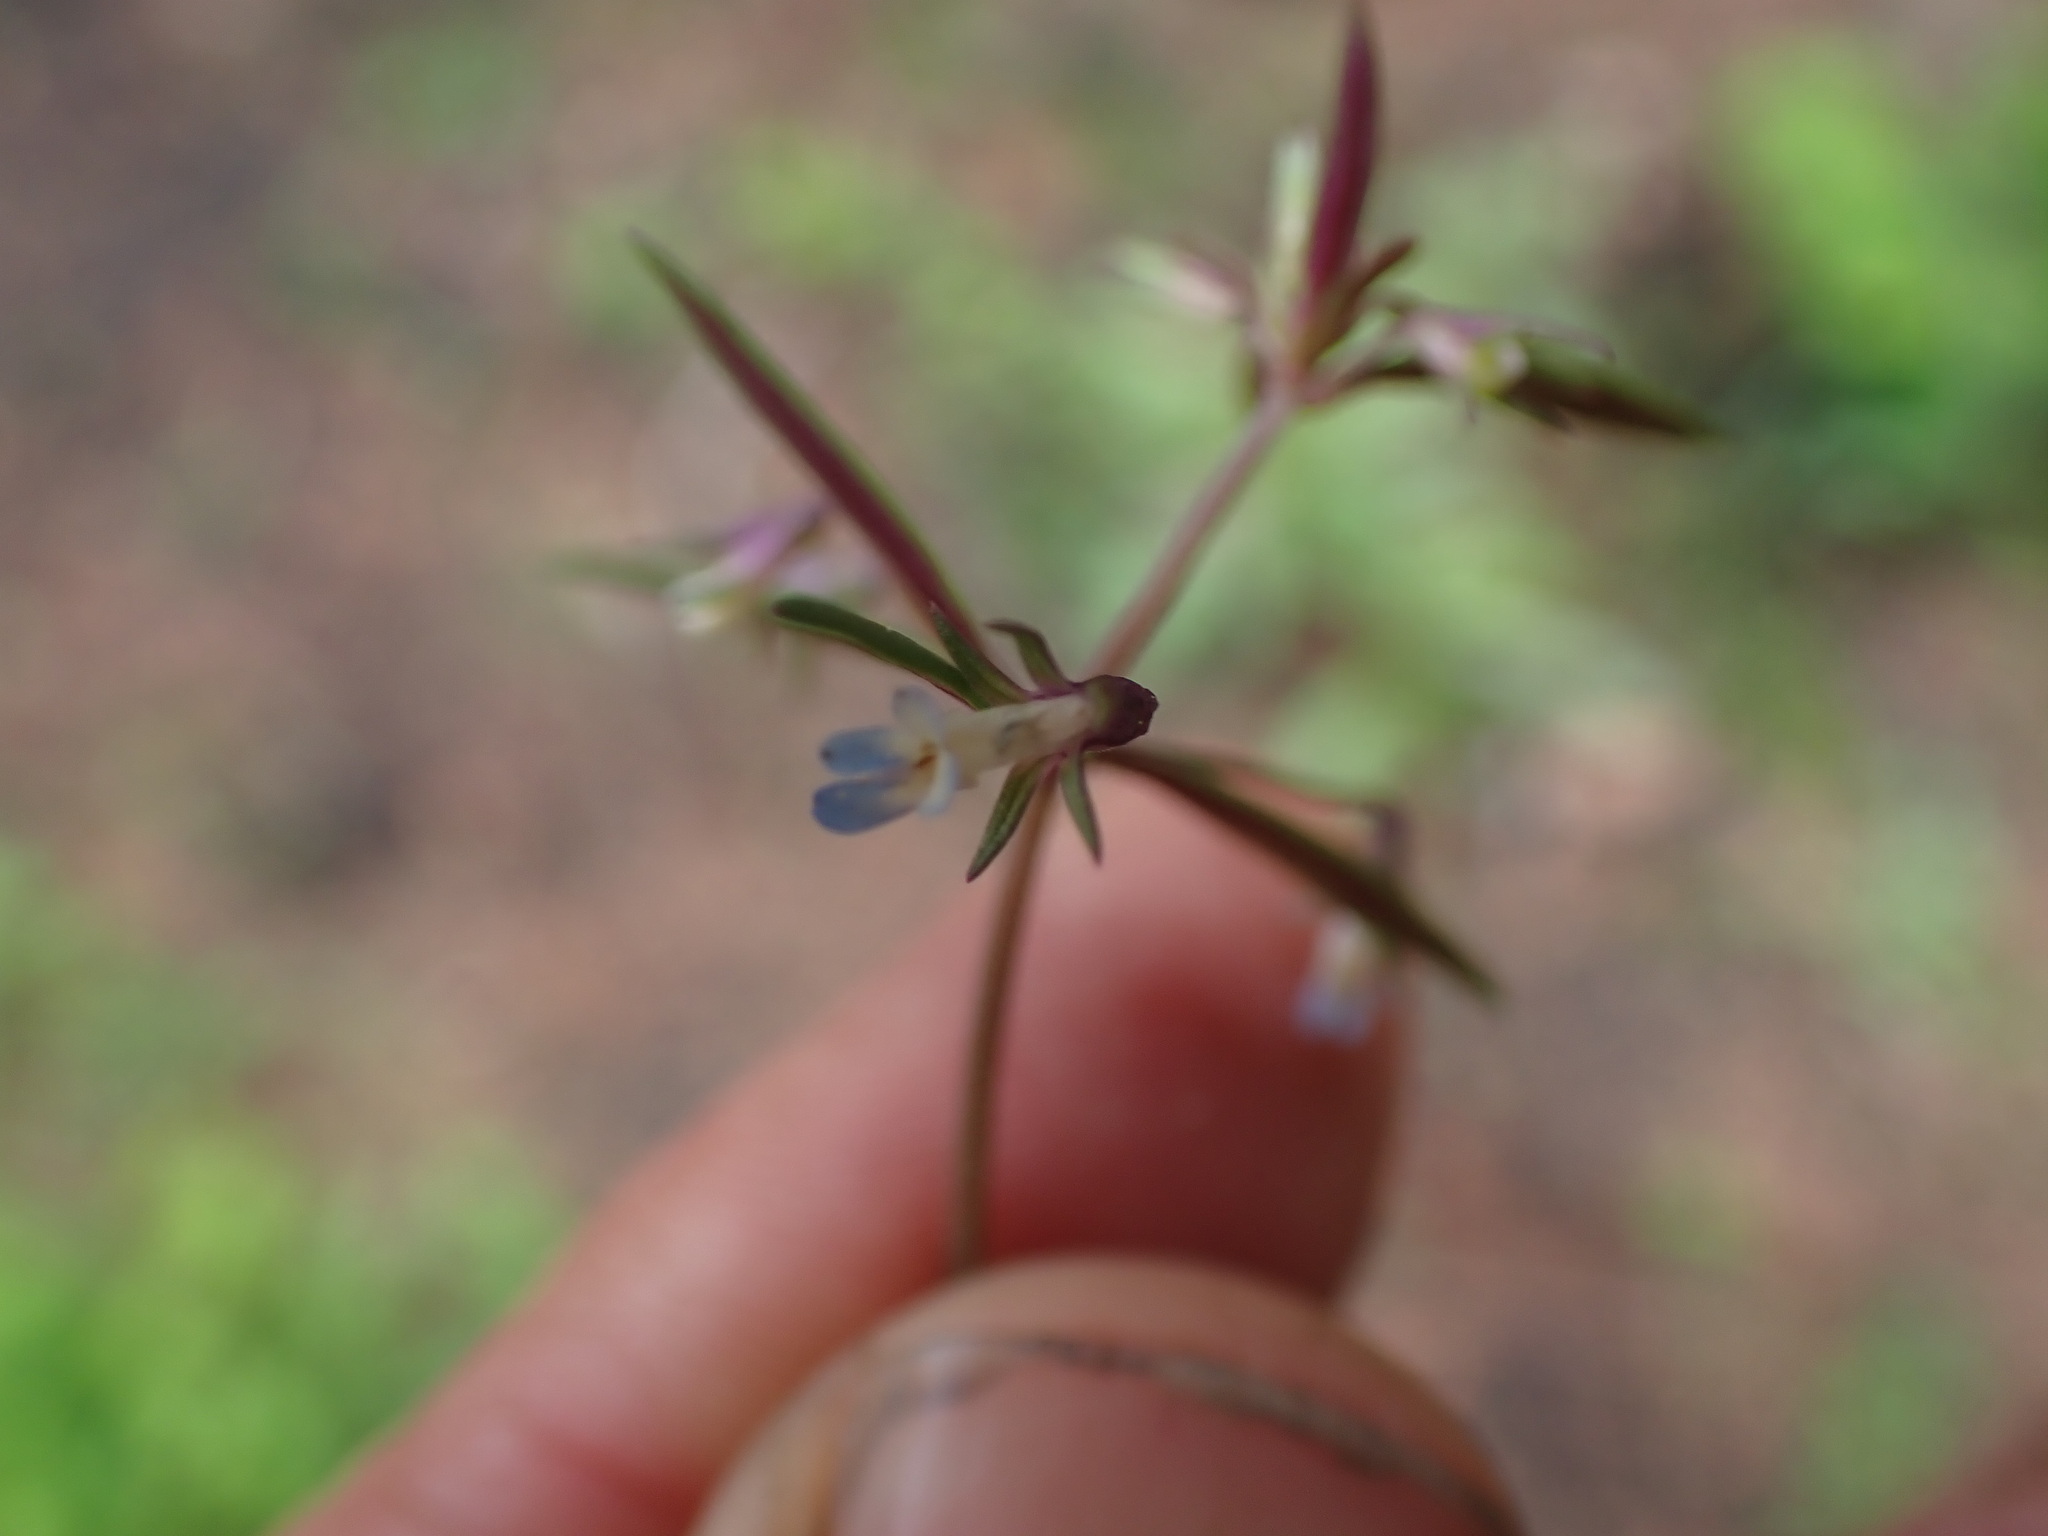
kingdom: Plantae
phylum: Tracheophyta
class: Magnoliopsida
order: Lamiales
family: Plantaginaceae
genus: Collinsia
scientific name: Collinsia parviflora
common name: Blue-lips
